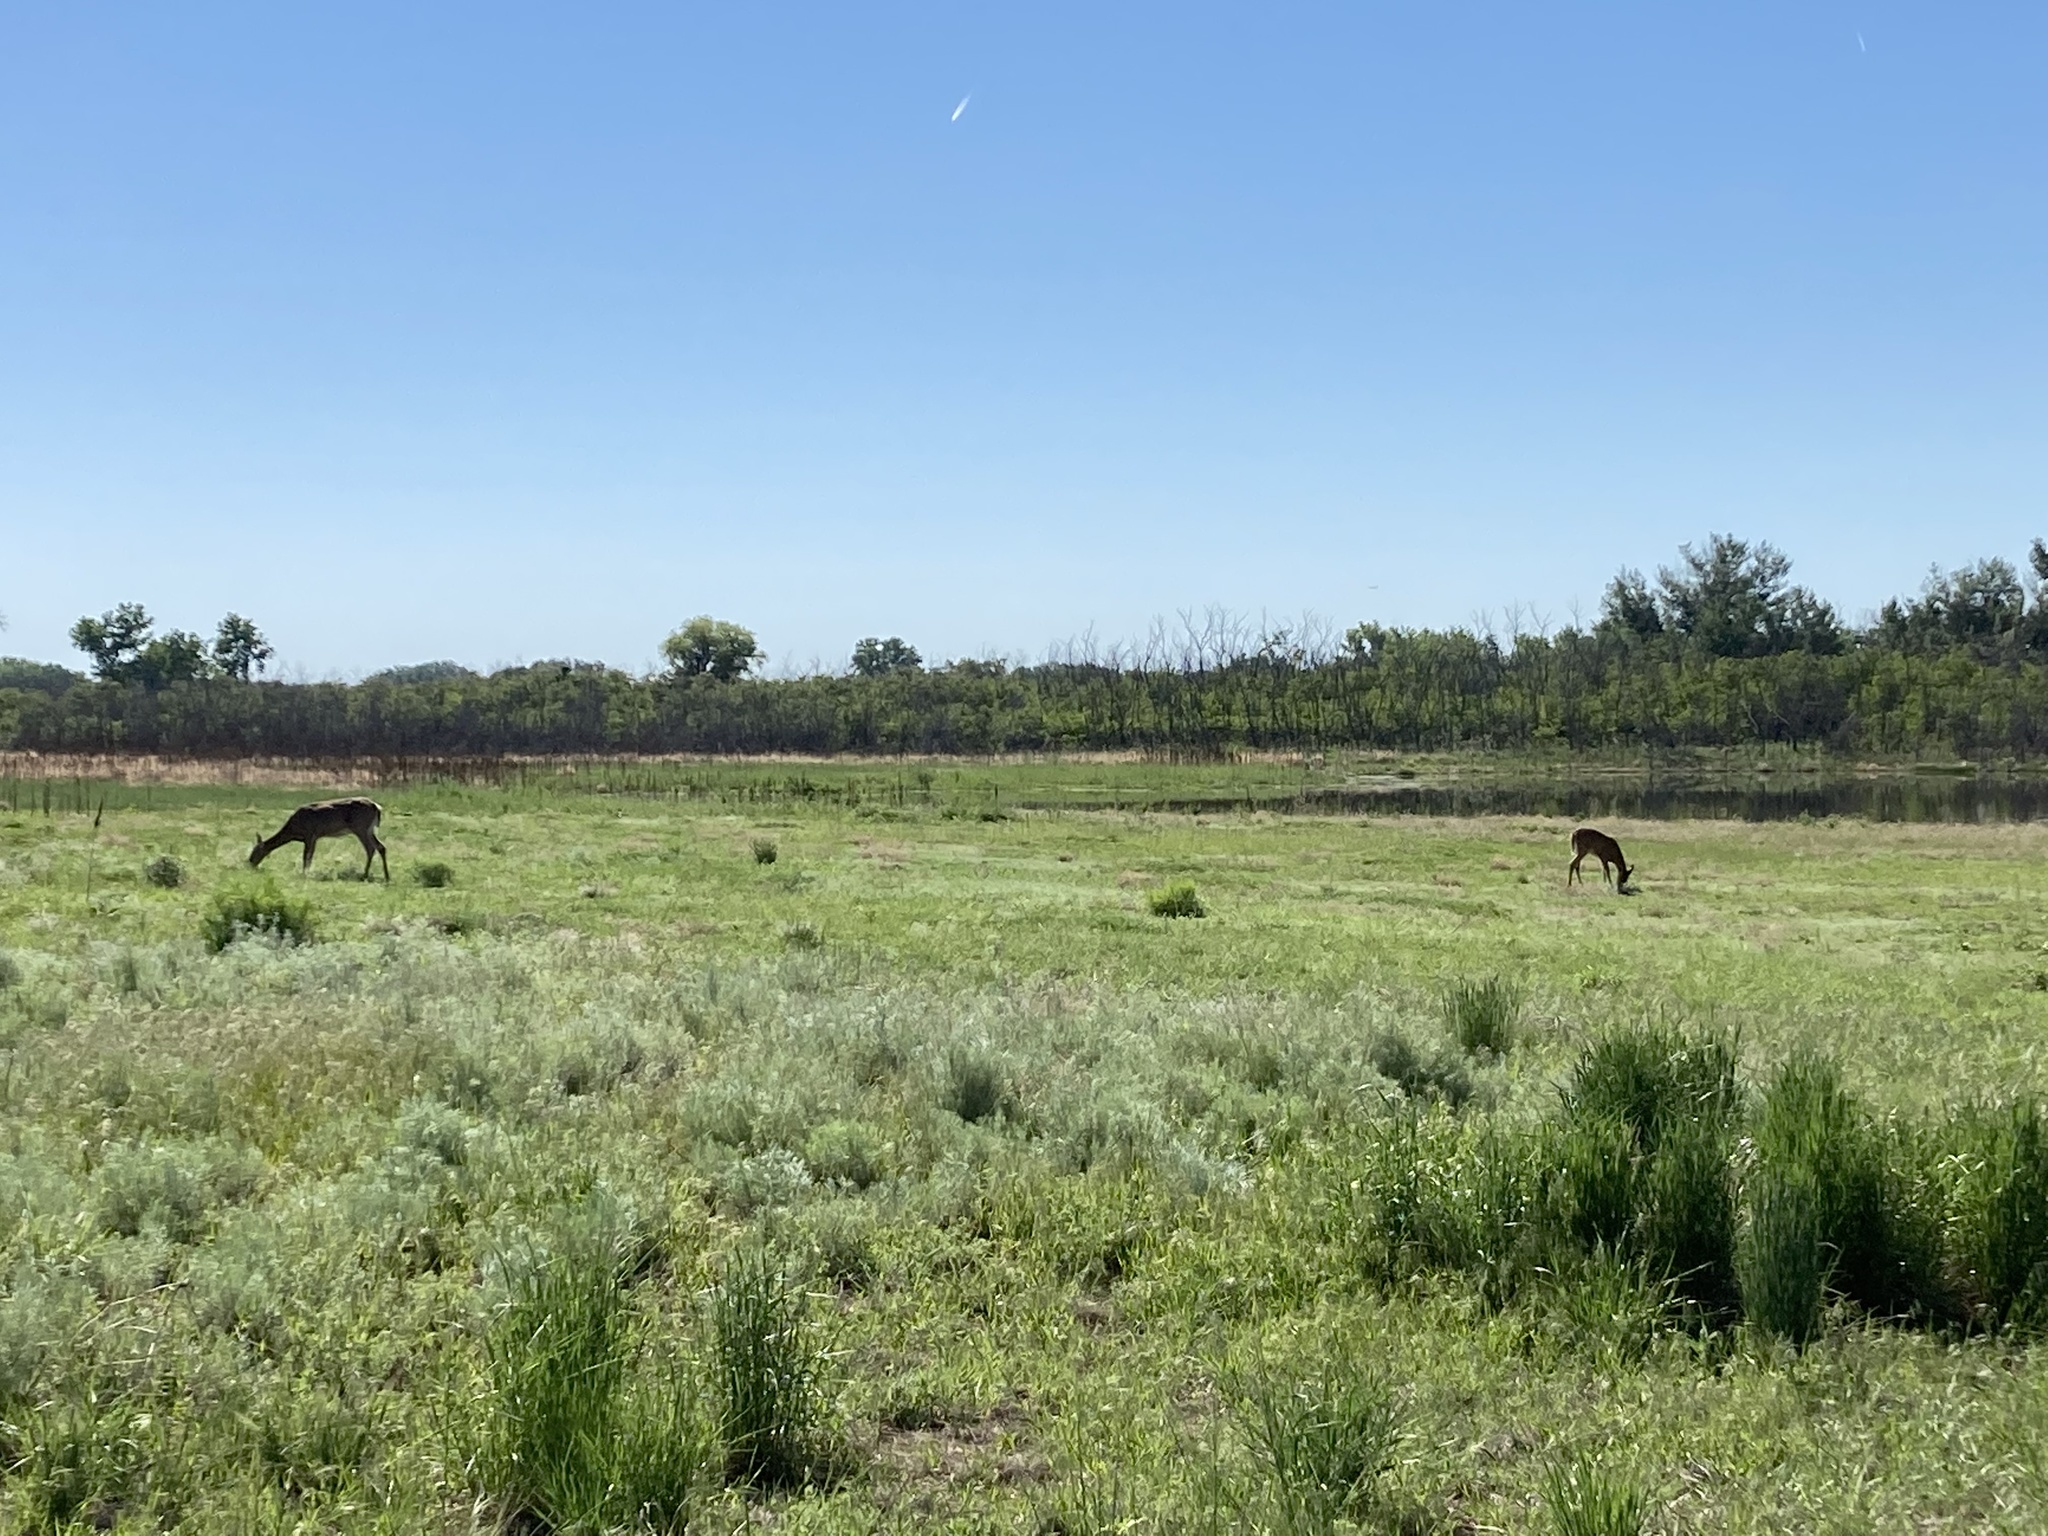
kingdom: Animalia
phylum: Chordata
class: Mammalia
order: Artiodactyla
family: Cervidae
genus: Odocoileus
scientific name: Odocoileus virginianus
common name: White-tailed deer
